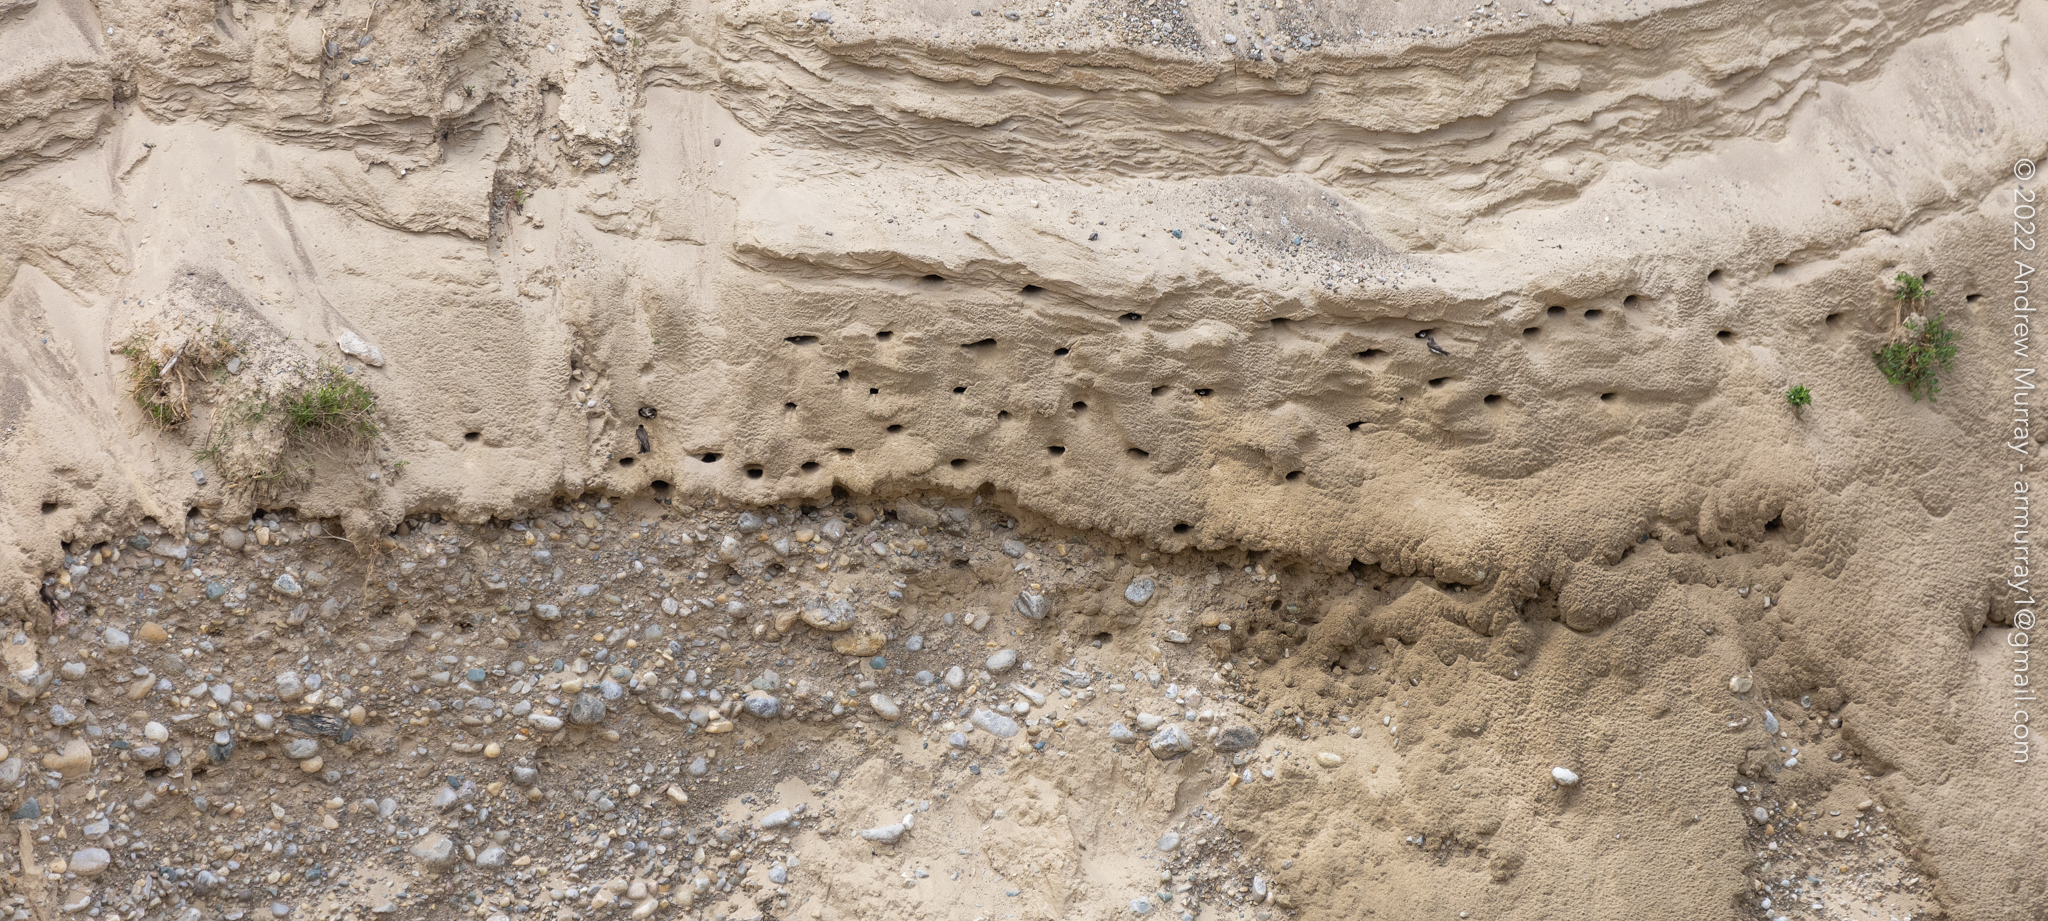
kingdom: Animalia
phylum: Chordata
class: Aves
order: Passeriformes
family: Hirundinidae
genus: Riparia
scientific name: Riparia riparia
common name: Sand martin
